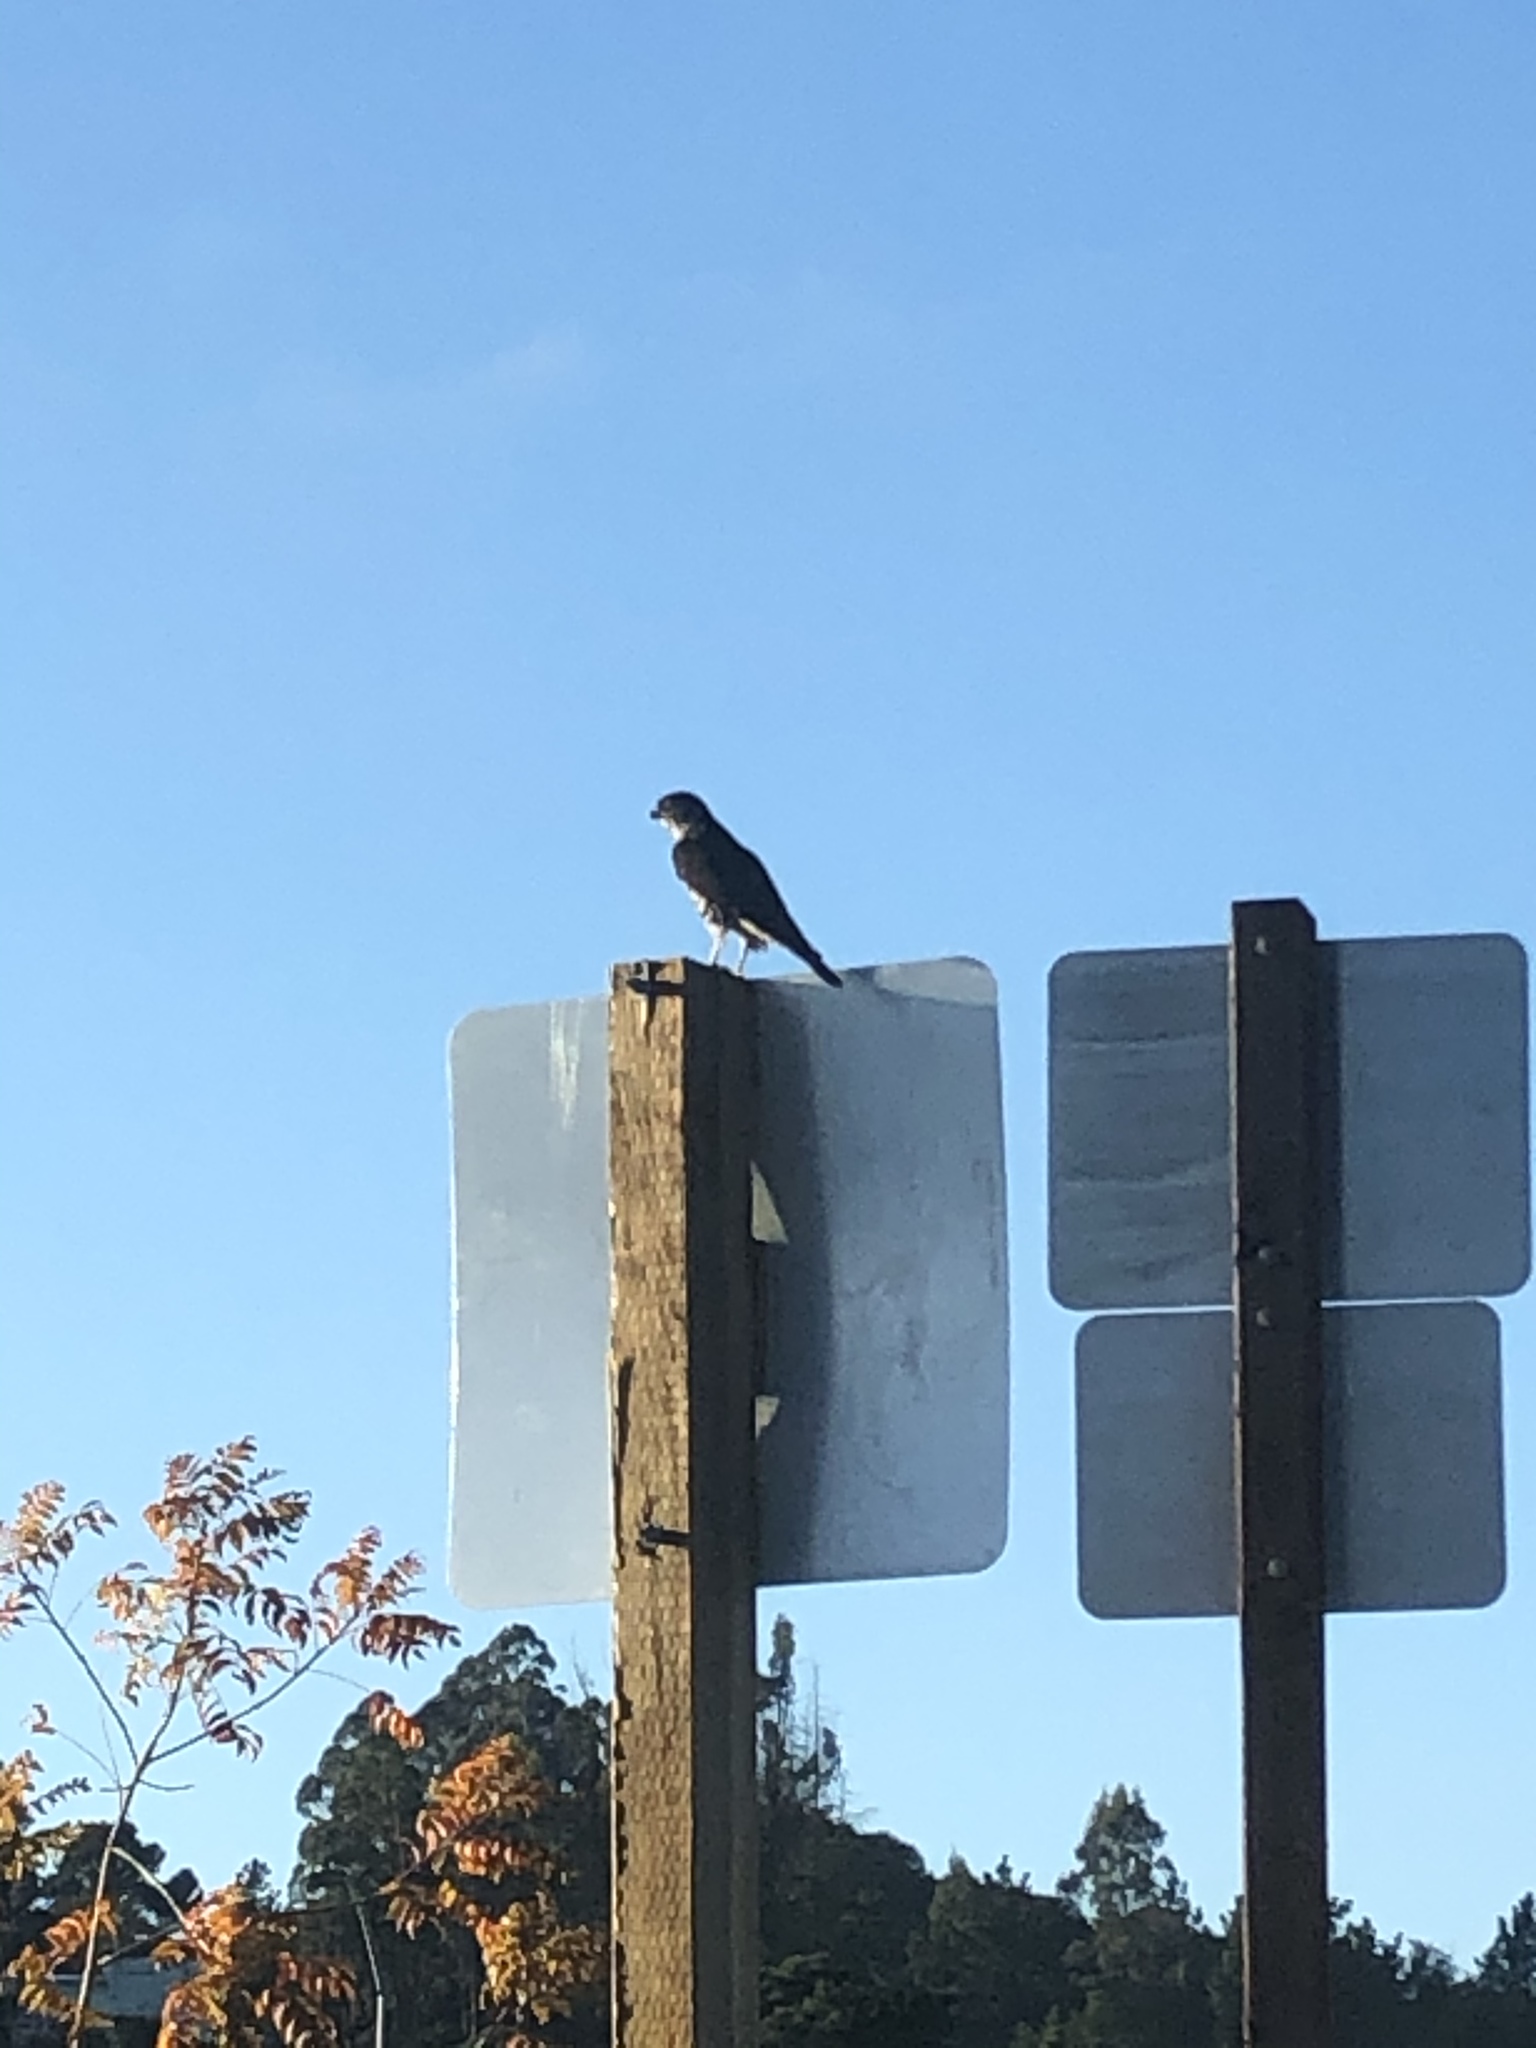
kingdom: Animalia
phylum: Chordata
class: Aves
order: Falconiformes
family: Falconidae
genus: Falco
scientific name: Falco columbarius
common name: Merlin
